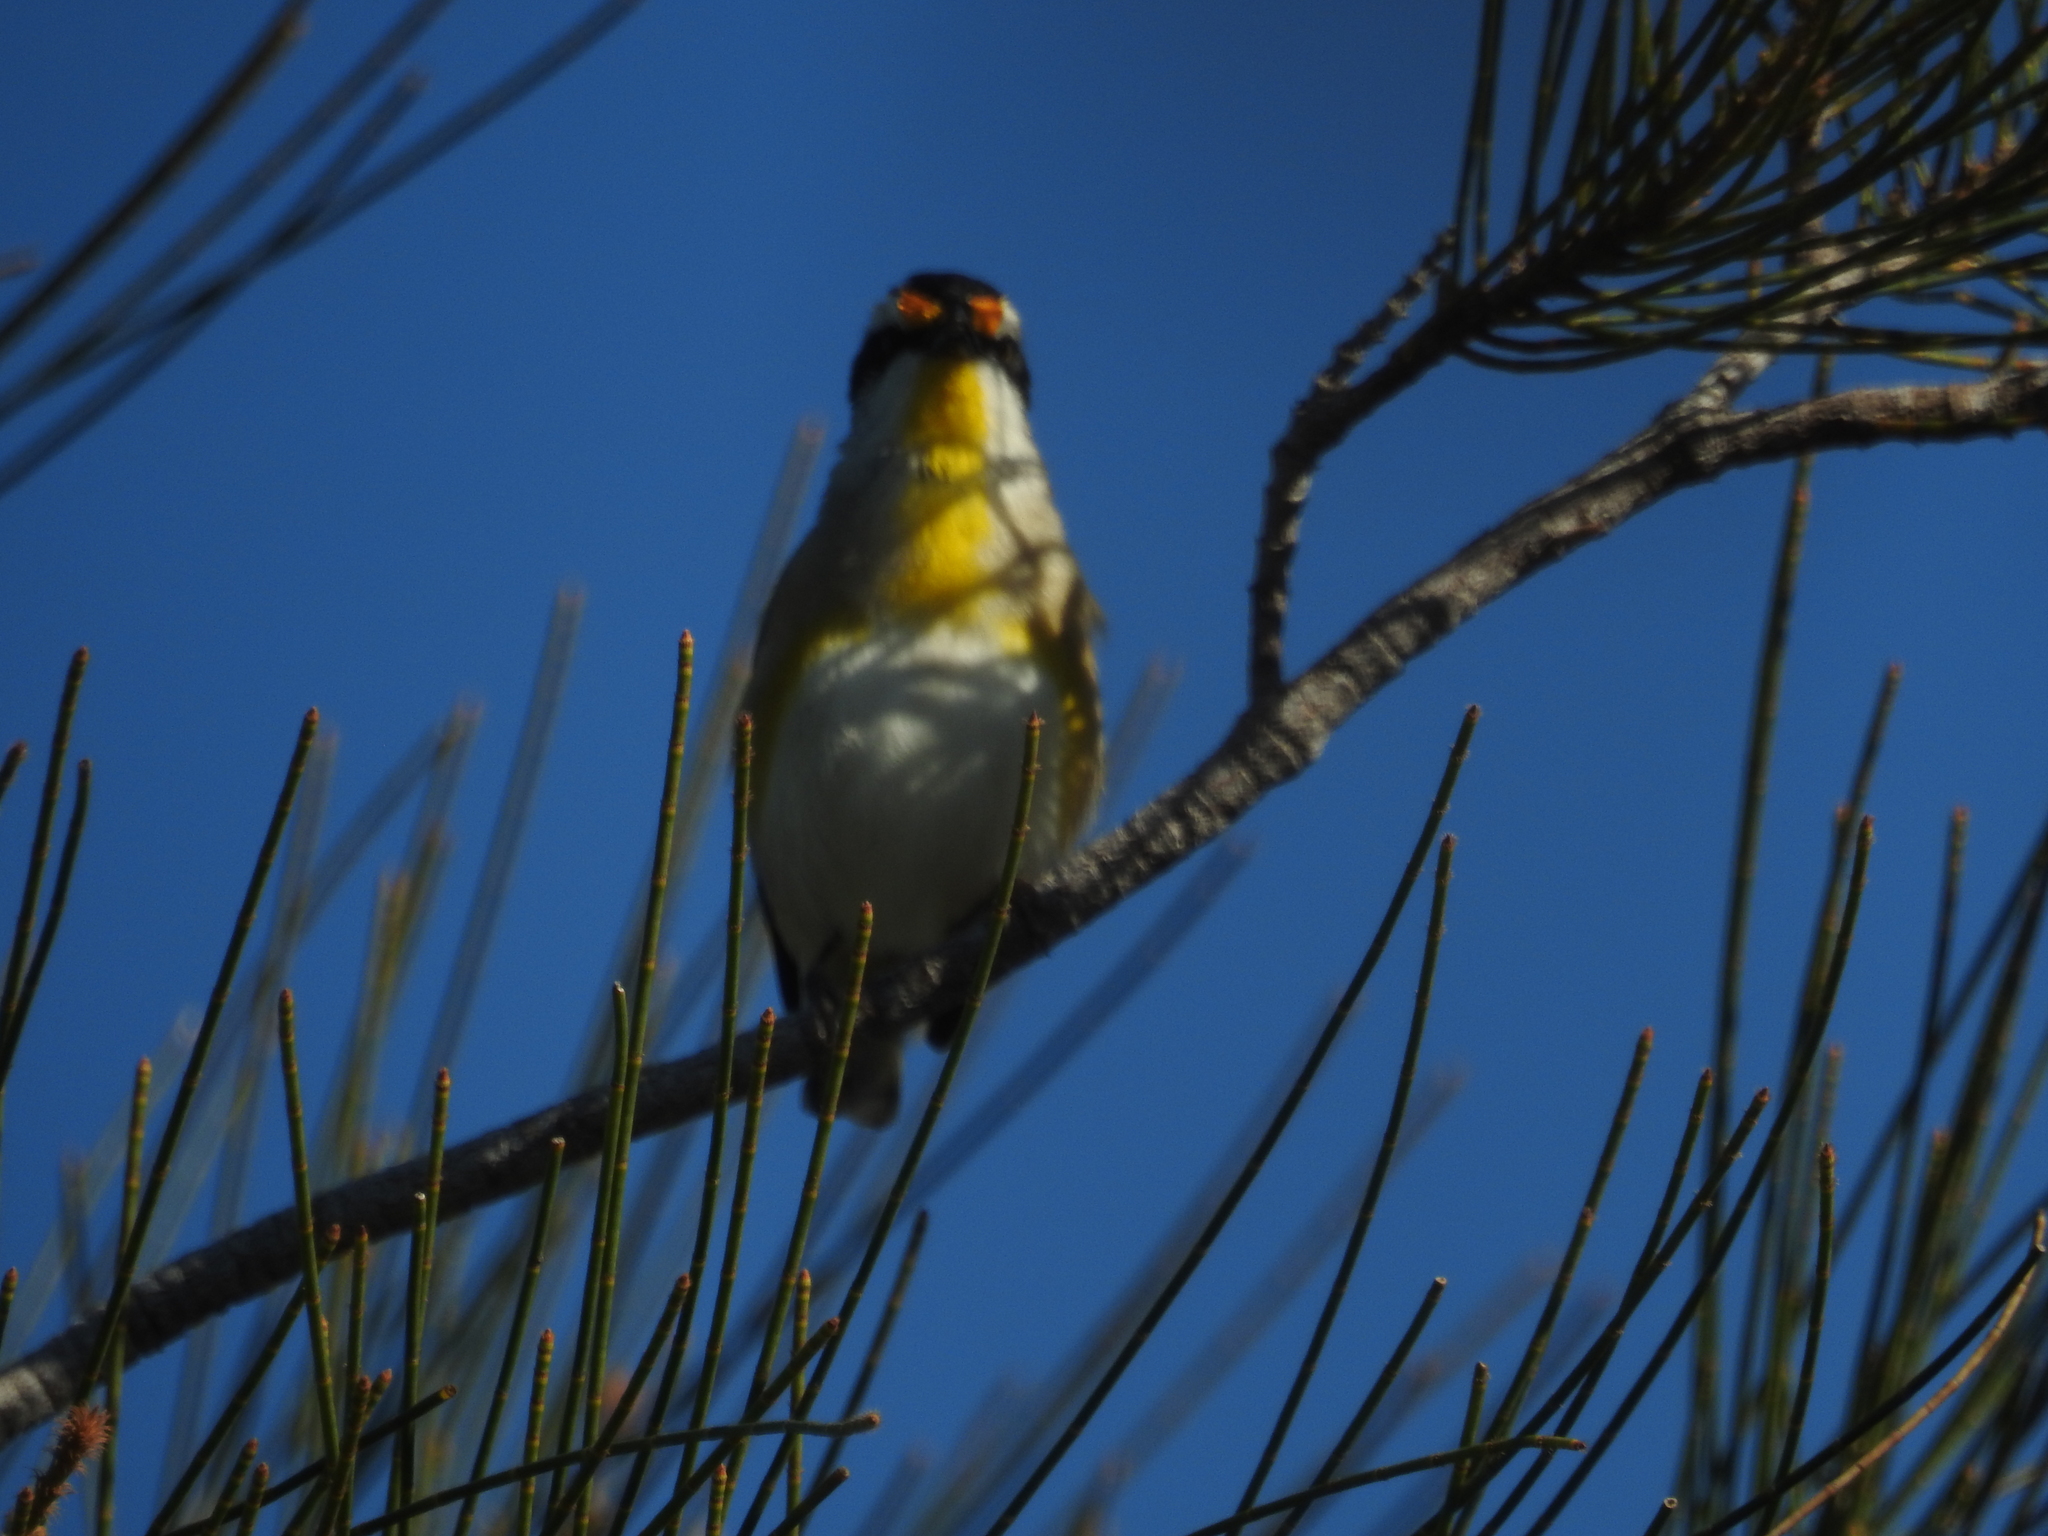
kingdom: Animalia
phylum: Chordata
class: Aves
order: Passeriformes
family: Pardalotidae
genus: Pardalotus
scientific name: Pardalotus striatus
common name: Striated pardalote
